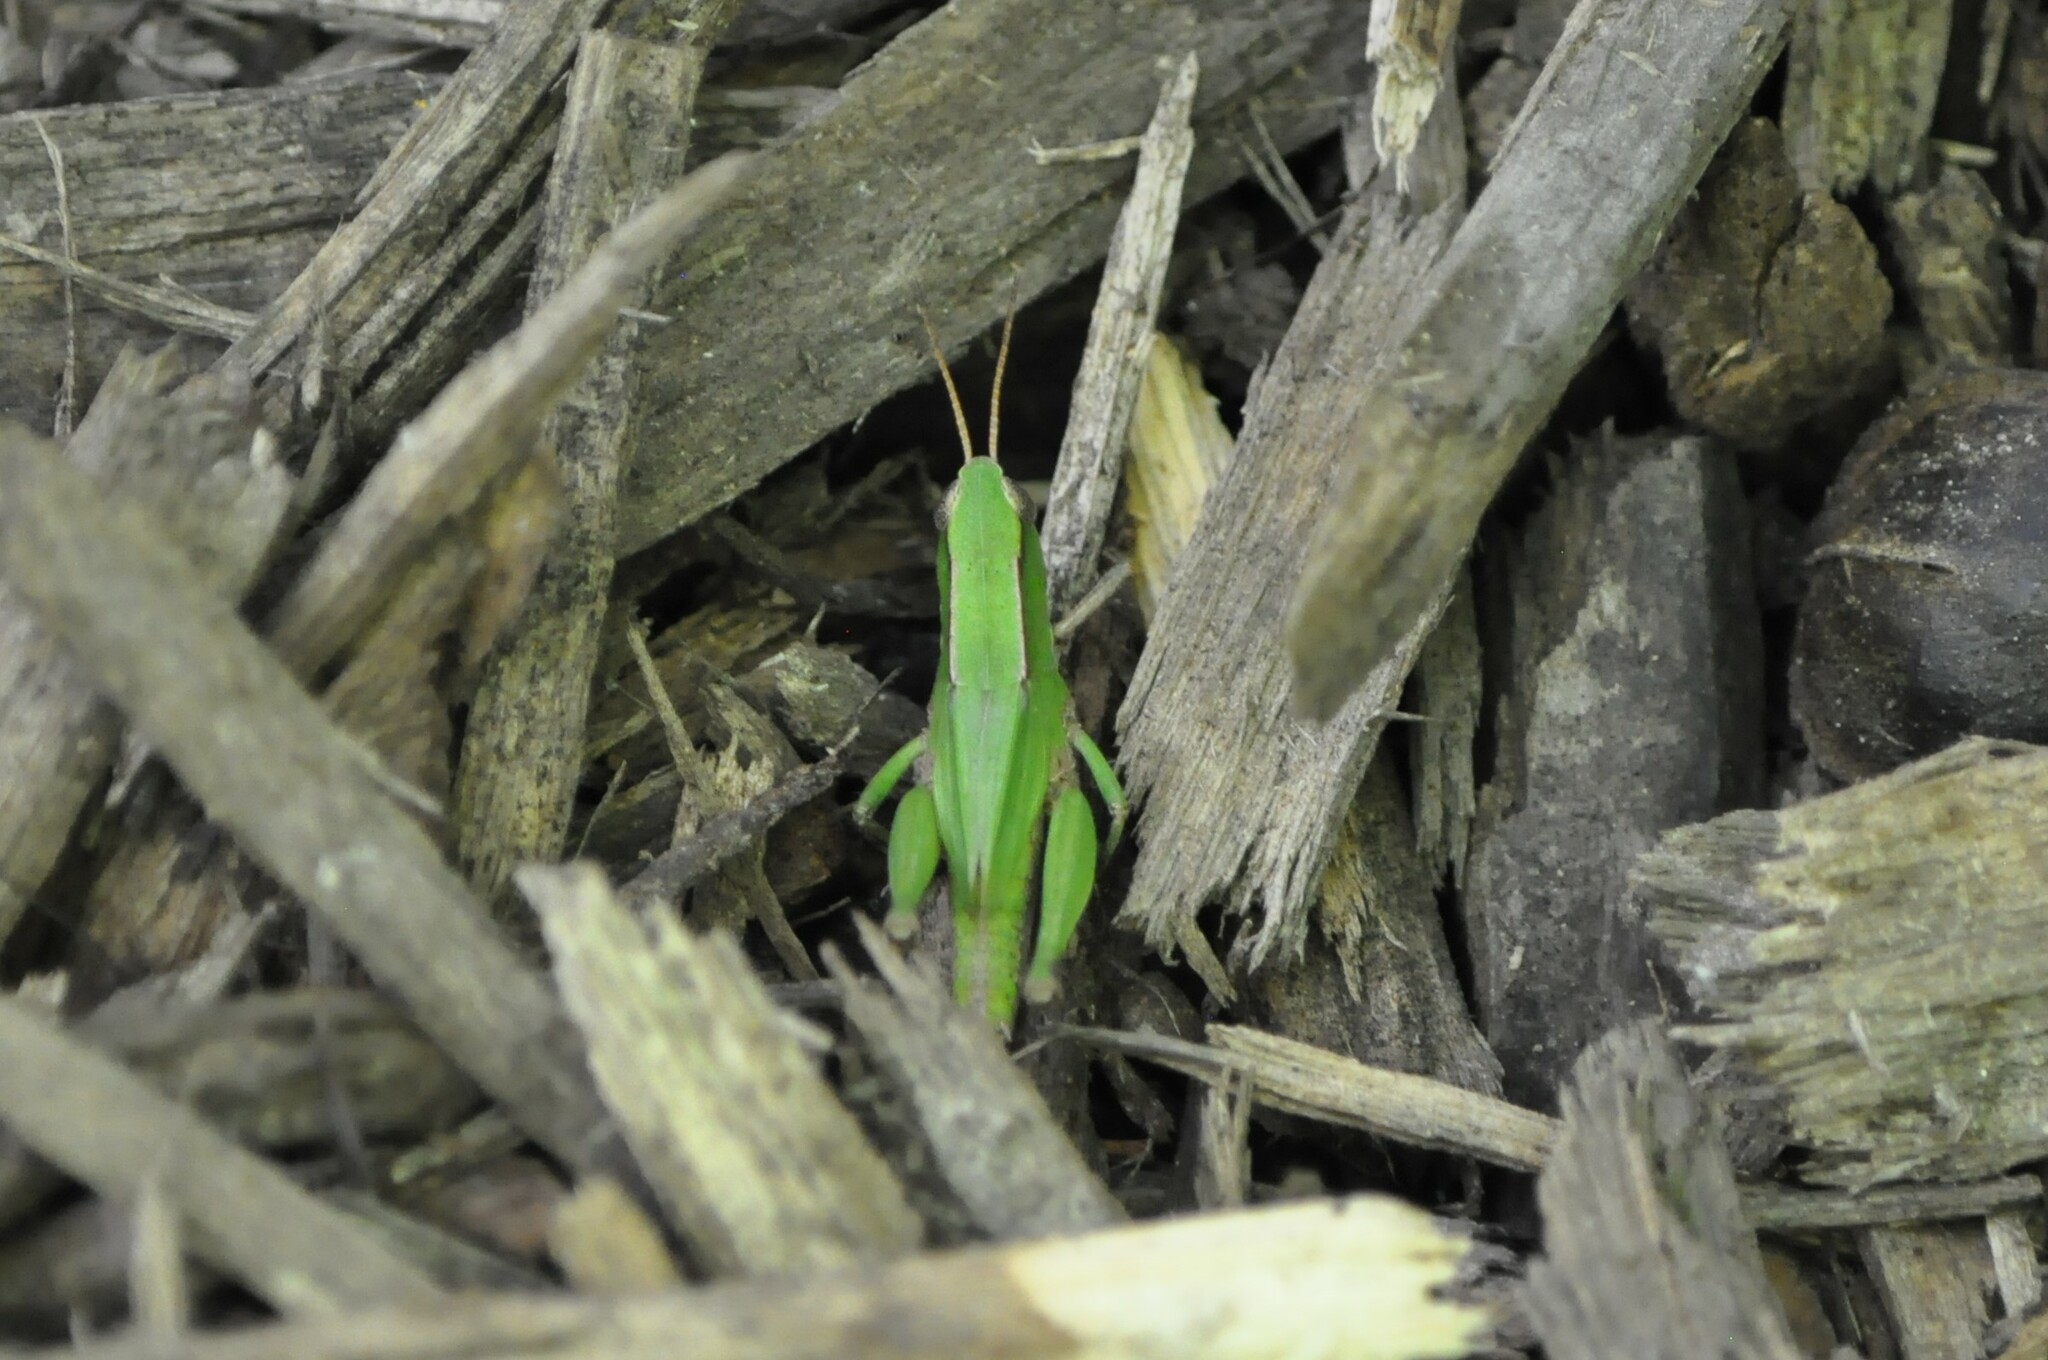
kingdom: Animalia
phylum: Arthropoda
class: Insecta
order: Orthoptera
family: Acrididae
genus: Dichromorpha
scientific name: Dichromorpha viridis
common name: Short-winged green grasshopper
